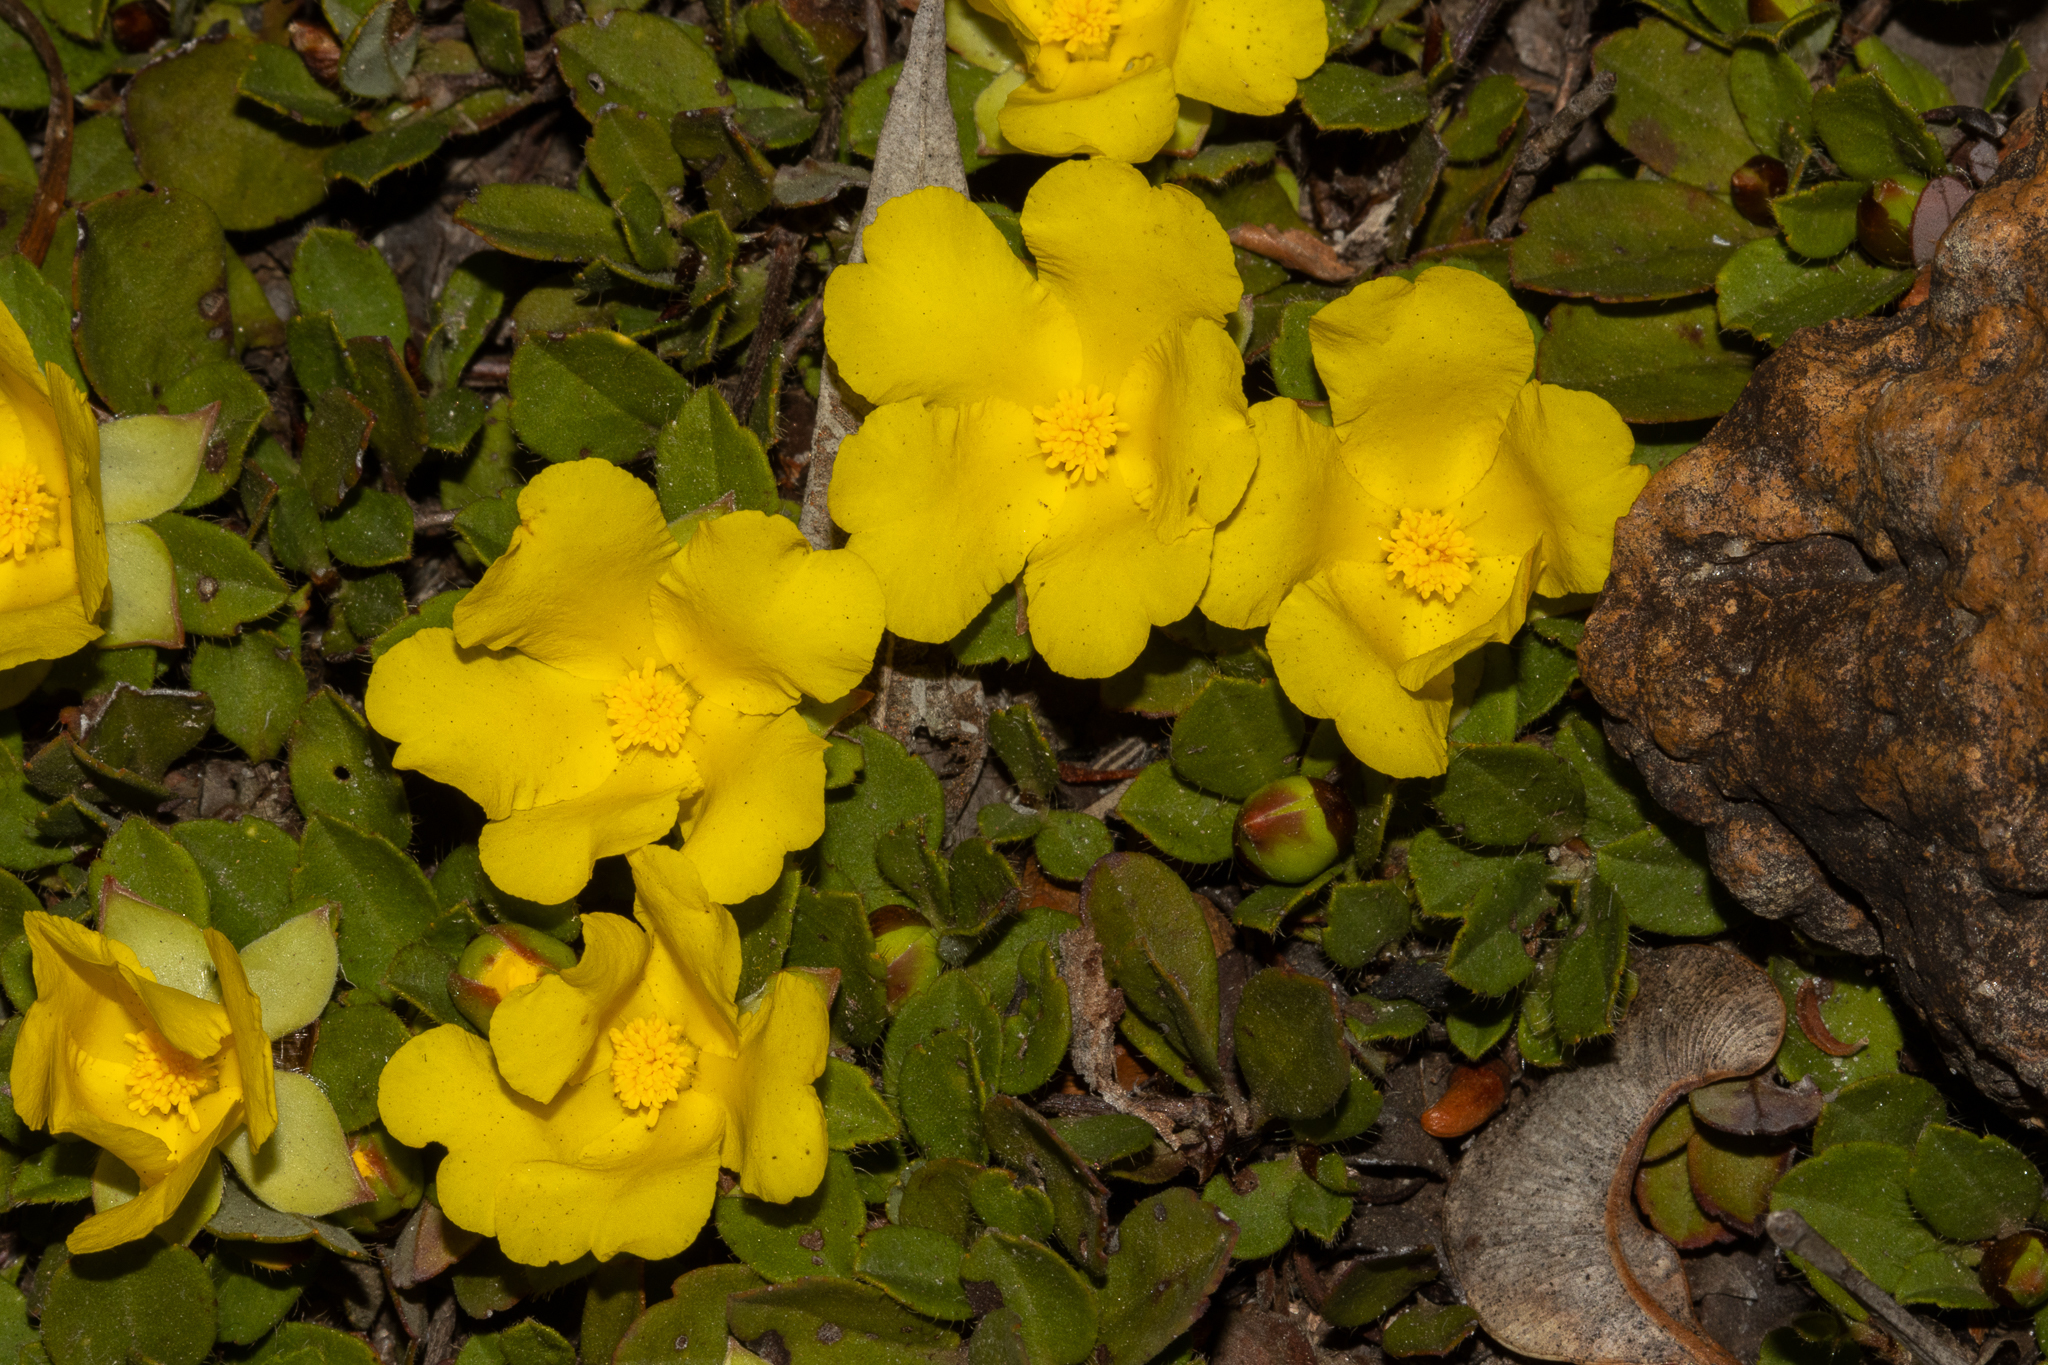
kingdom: Plantae
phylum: Tracheophyta
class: Magnoliopsida
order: Dilleniales
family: Dilleniaceae
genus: Hibbertia
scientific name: Hibbertia hortiorum
